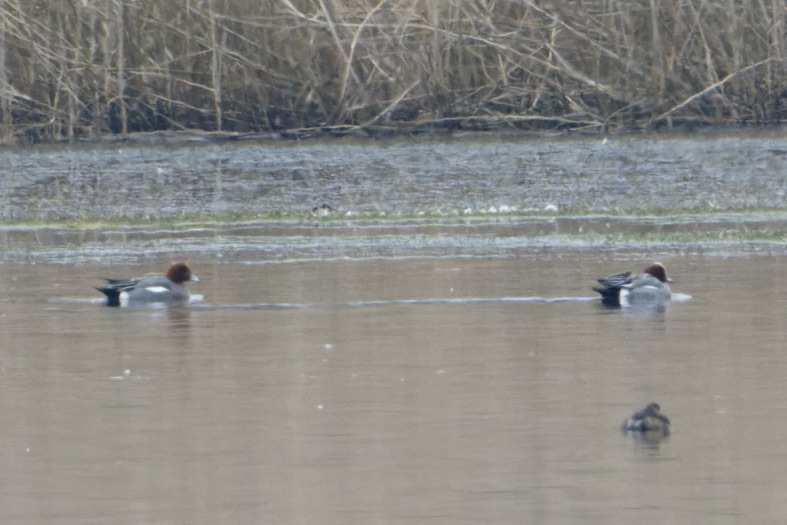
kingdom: Animalia
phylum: Chordata
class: Aves
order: Anseriformes
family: Anatidae
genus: Mareca
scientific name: Mareca penelope
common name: Eurasian wigeon
